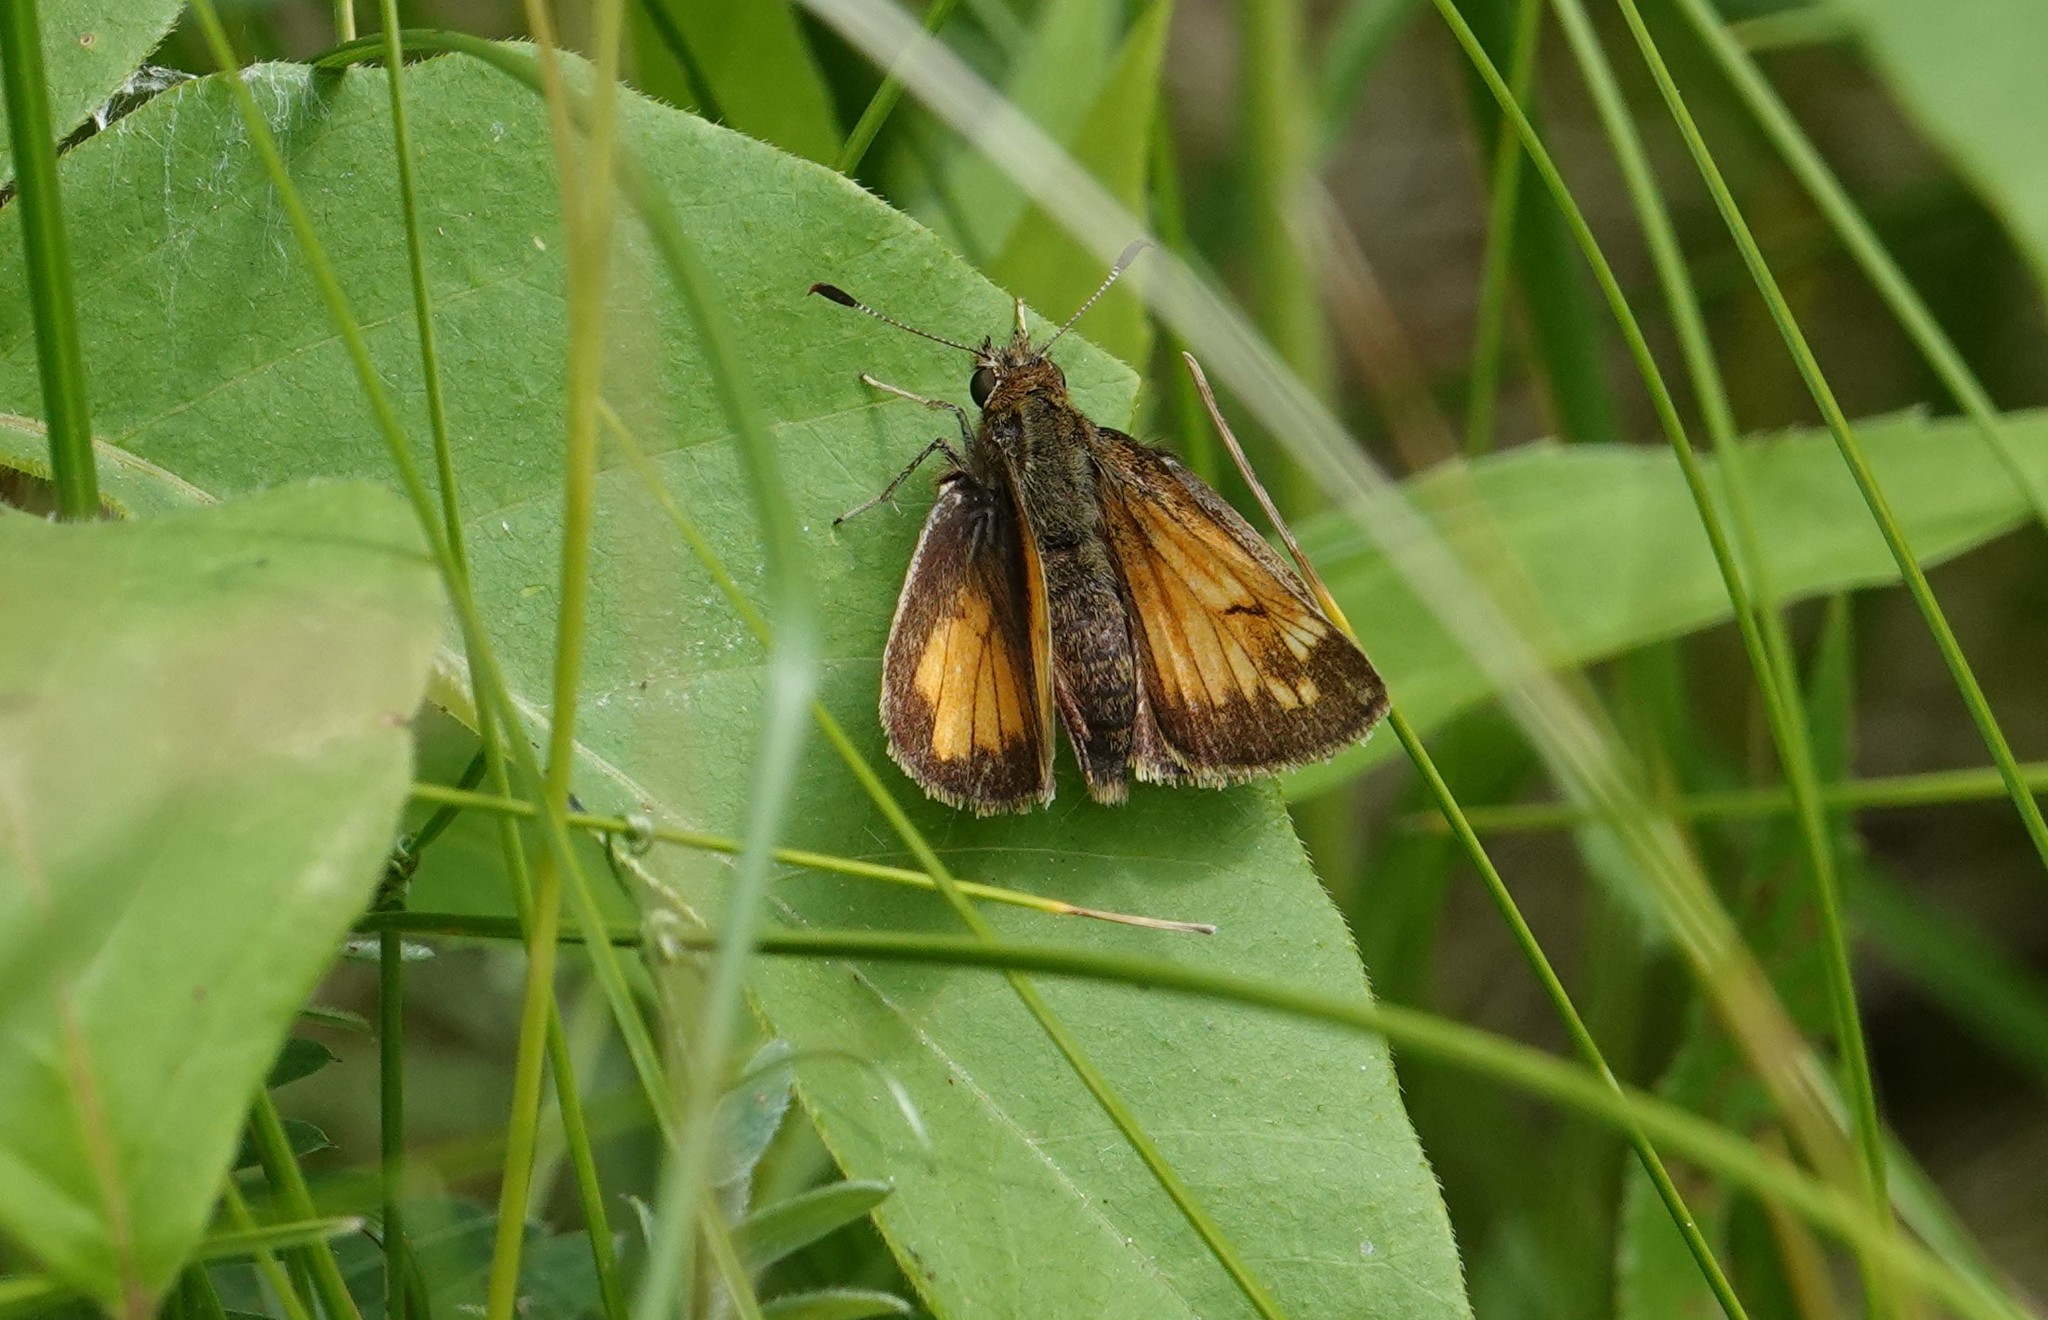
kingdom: Animalia
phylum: Arthropoda
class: Insecta
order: Lepidoptera
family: Hesperiidae
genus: Lon
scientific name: Lon hobomok
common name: Hobomok skipper
